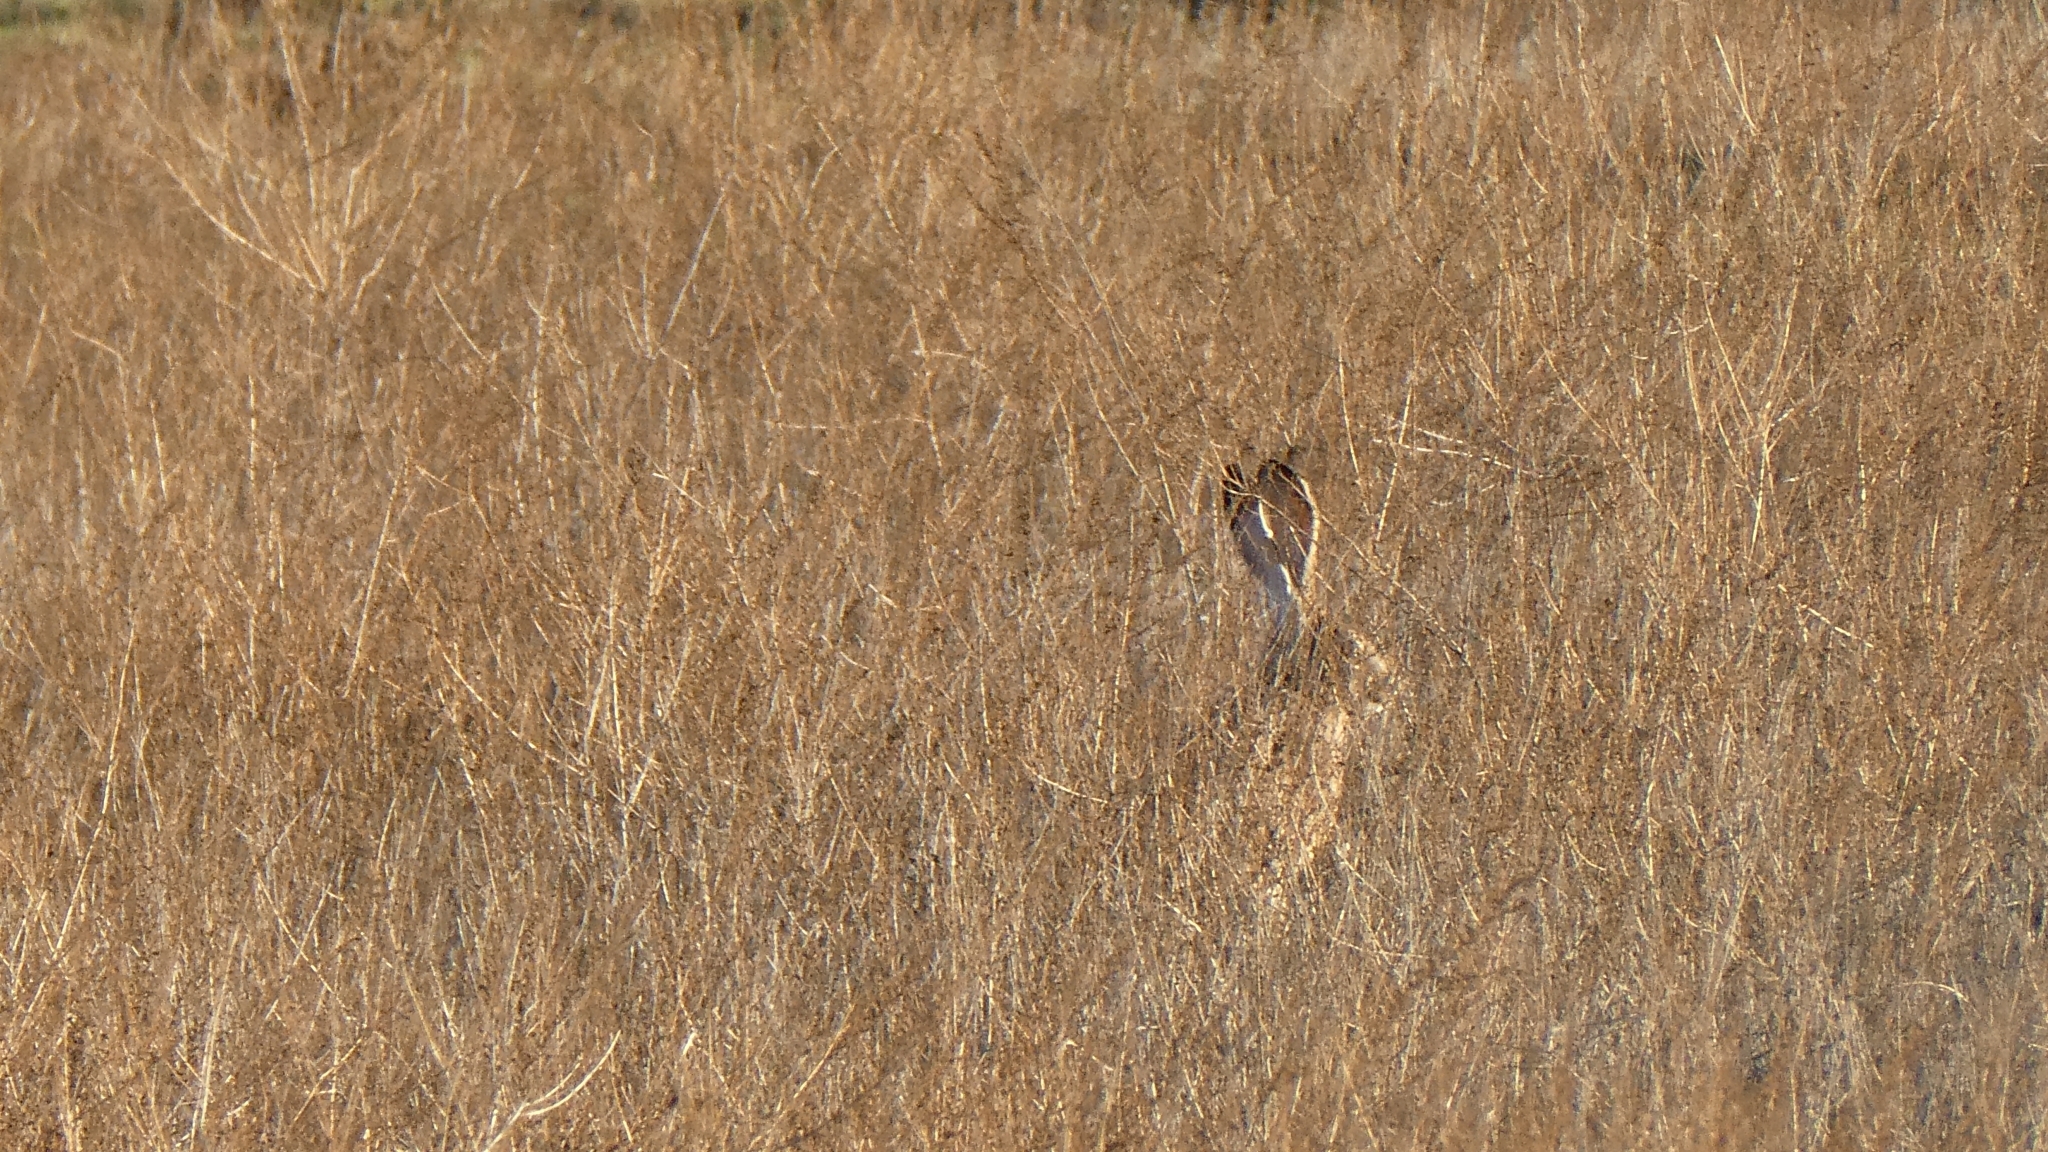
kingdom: Animalia
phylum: Chordata
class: Mammalia
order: Lagomorpha
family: Leporidae
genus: Lepus
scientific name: Lepus californicus
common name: Black-tailed jackrabbit
